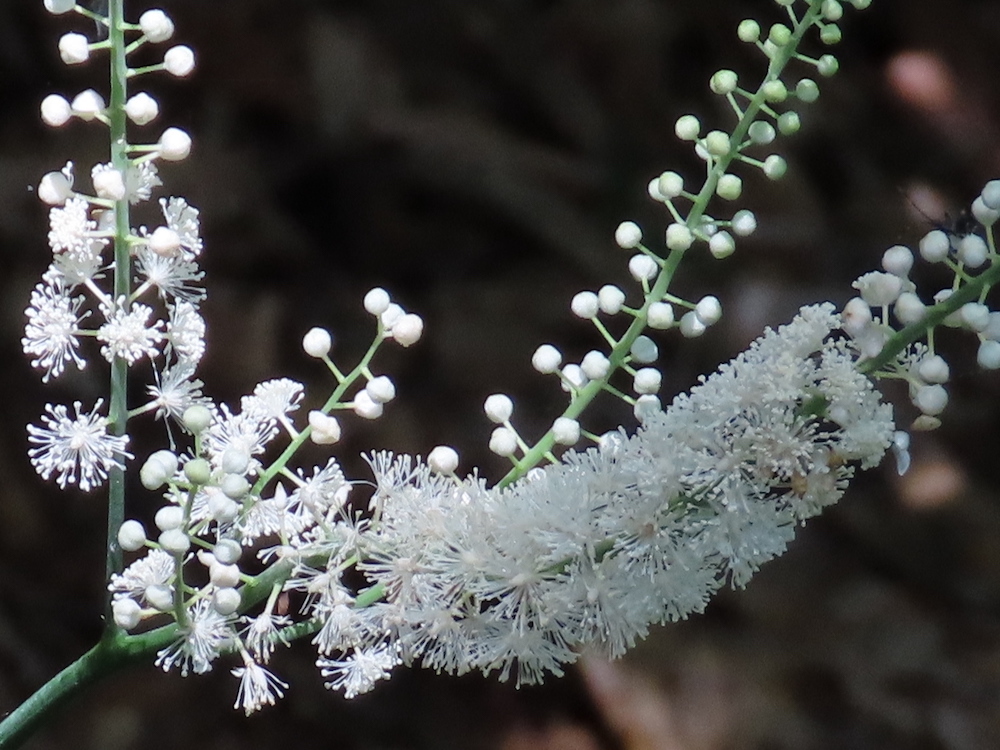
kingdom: Plantae
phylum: Tracheophyta
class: Magnoliopsida
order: Ranunculales
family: Ranunculaceae
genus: Actaea
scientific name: Actaea racemosa
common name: Black cohosh
